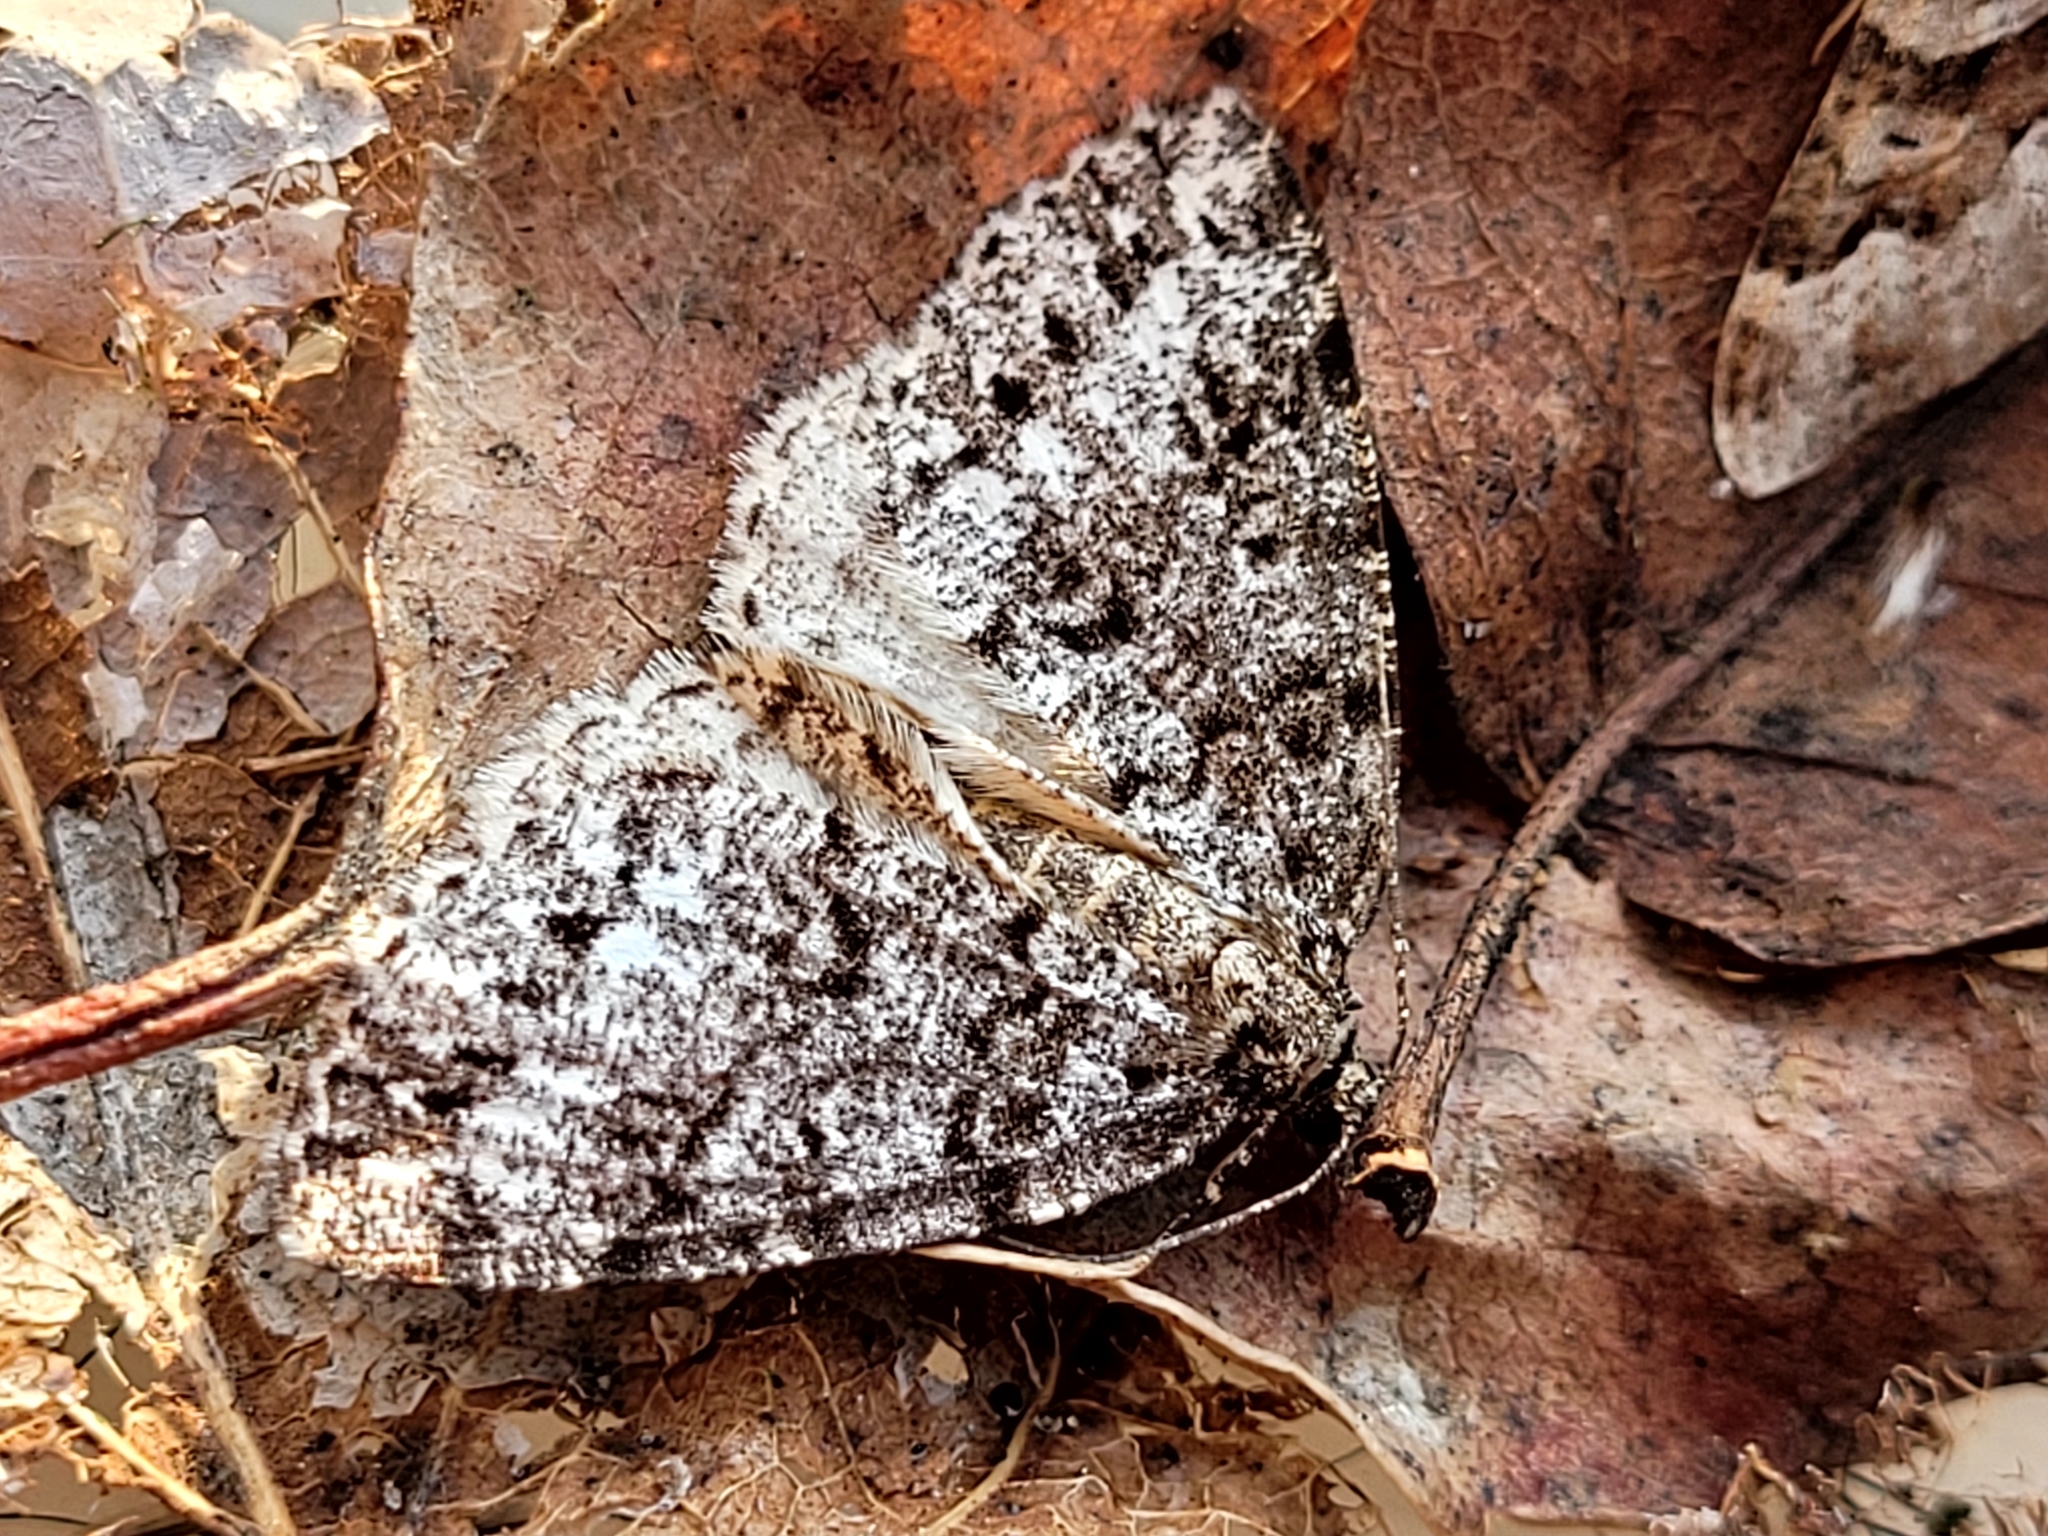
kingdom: Animalia
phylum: Arthropoda
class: Insecta
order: Lepidoptera
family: Geometridae
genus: Orthofidonia
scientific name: Orthofidonia tinctaria
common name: Marbled wave
